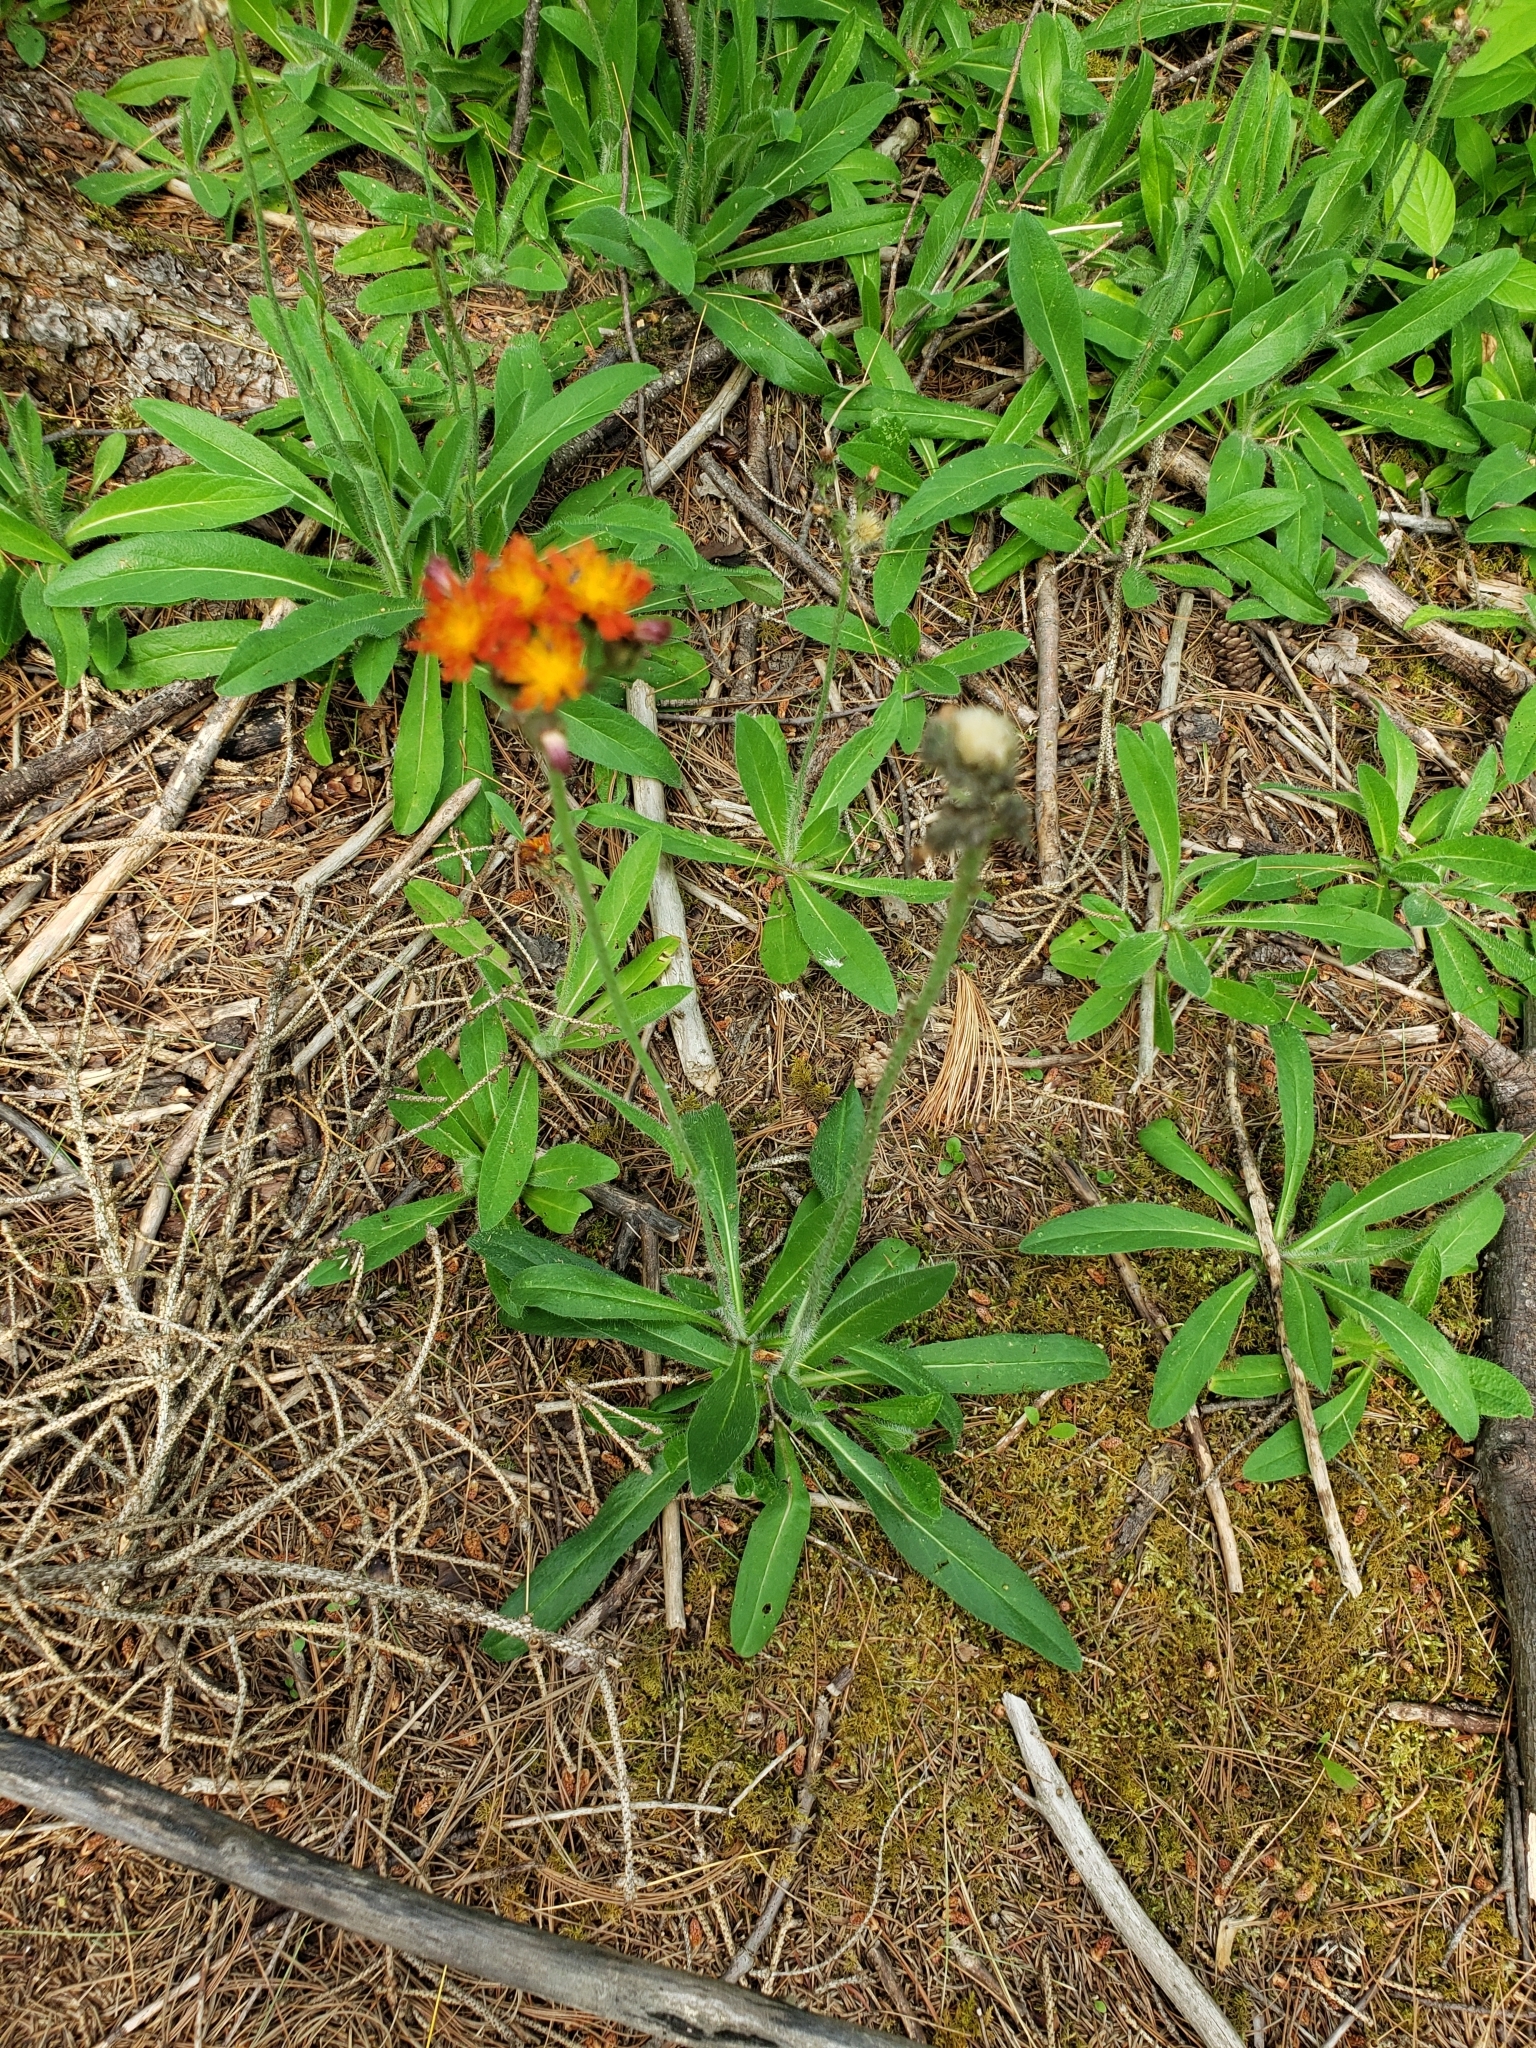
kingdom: Plantae
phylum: Tracheophyta
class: Magnoliopsida
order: Asterales
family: Asteraceae
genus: Pilosella
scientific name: Pilosella aurantiaca
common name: Fox-and-cubs
